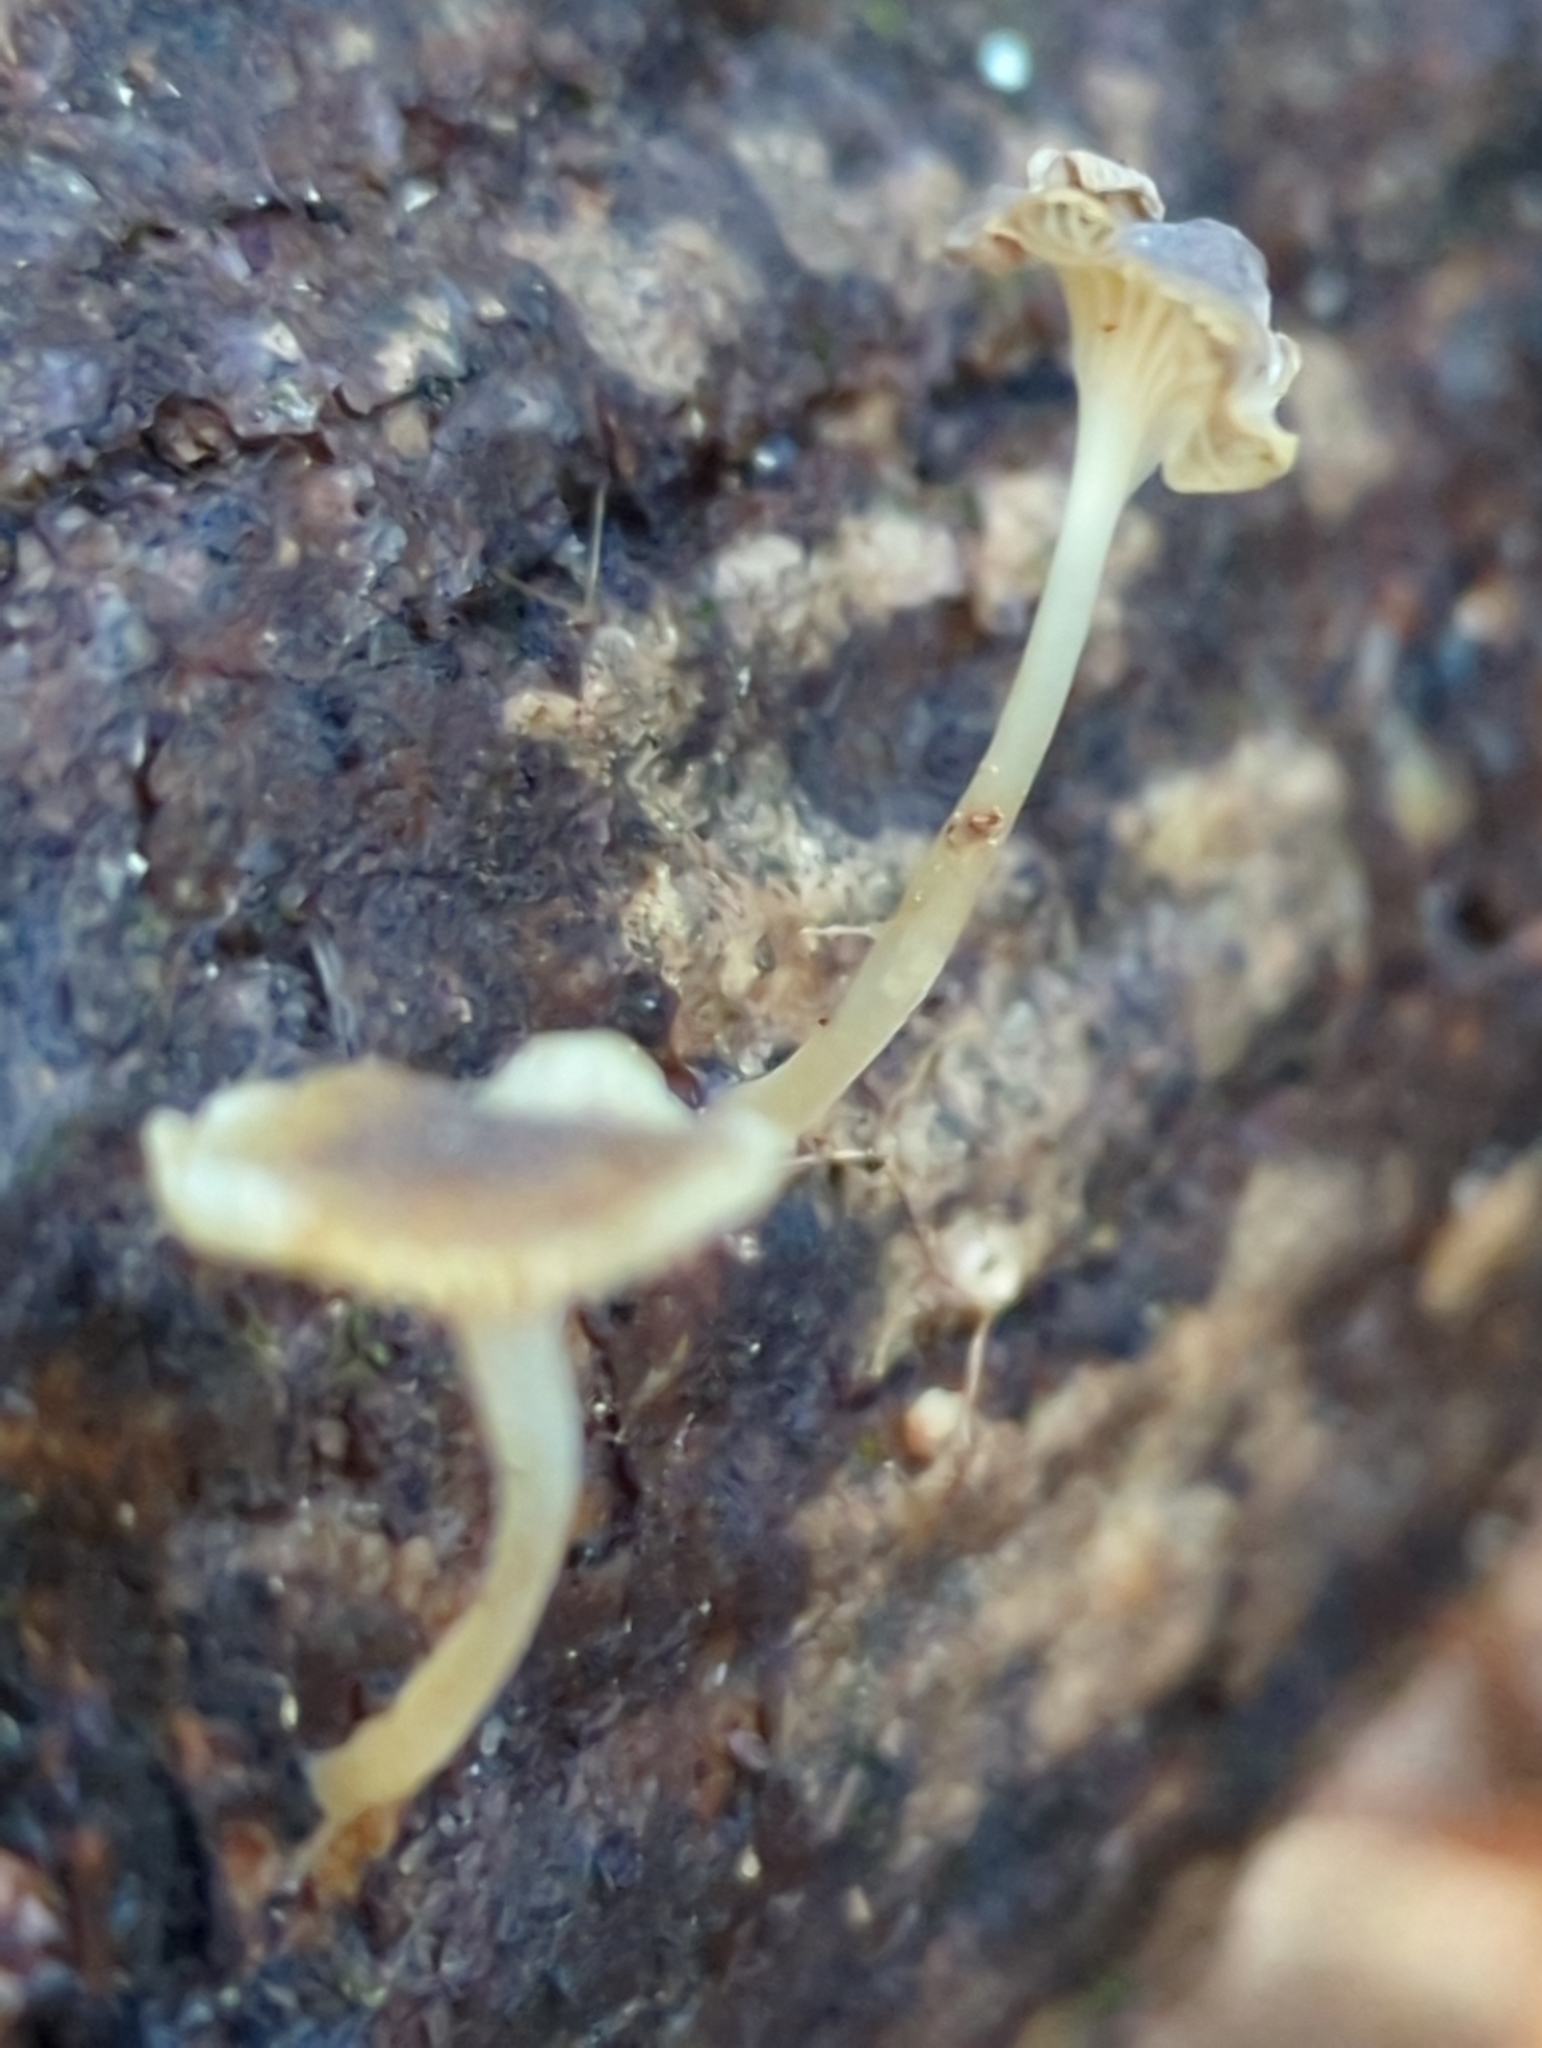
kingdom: Fungi
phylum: Basidiomycota
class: Agaricomycetes
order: Agaricales
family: Porotheleaceae
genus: Phloeomana
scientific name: Phloeomana speirea
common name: Bark bonnet
